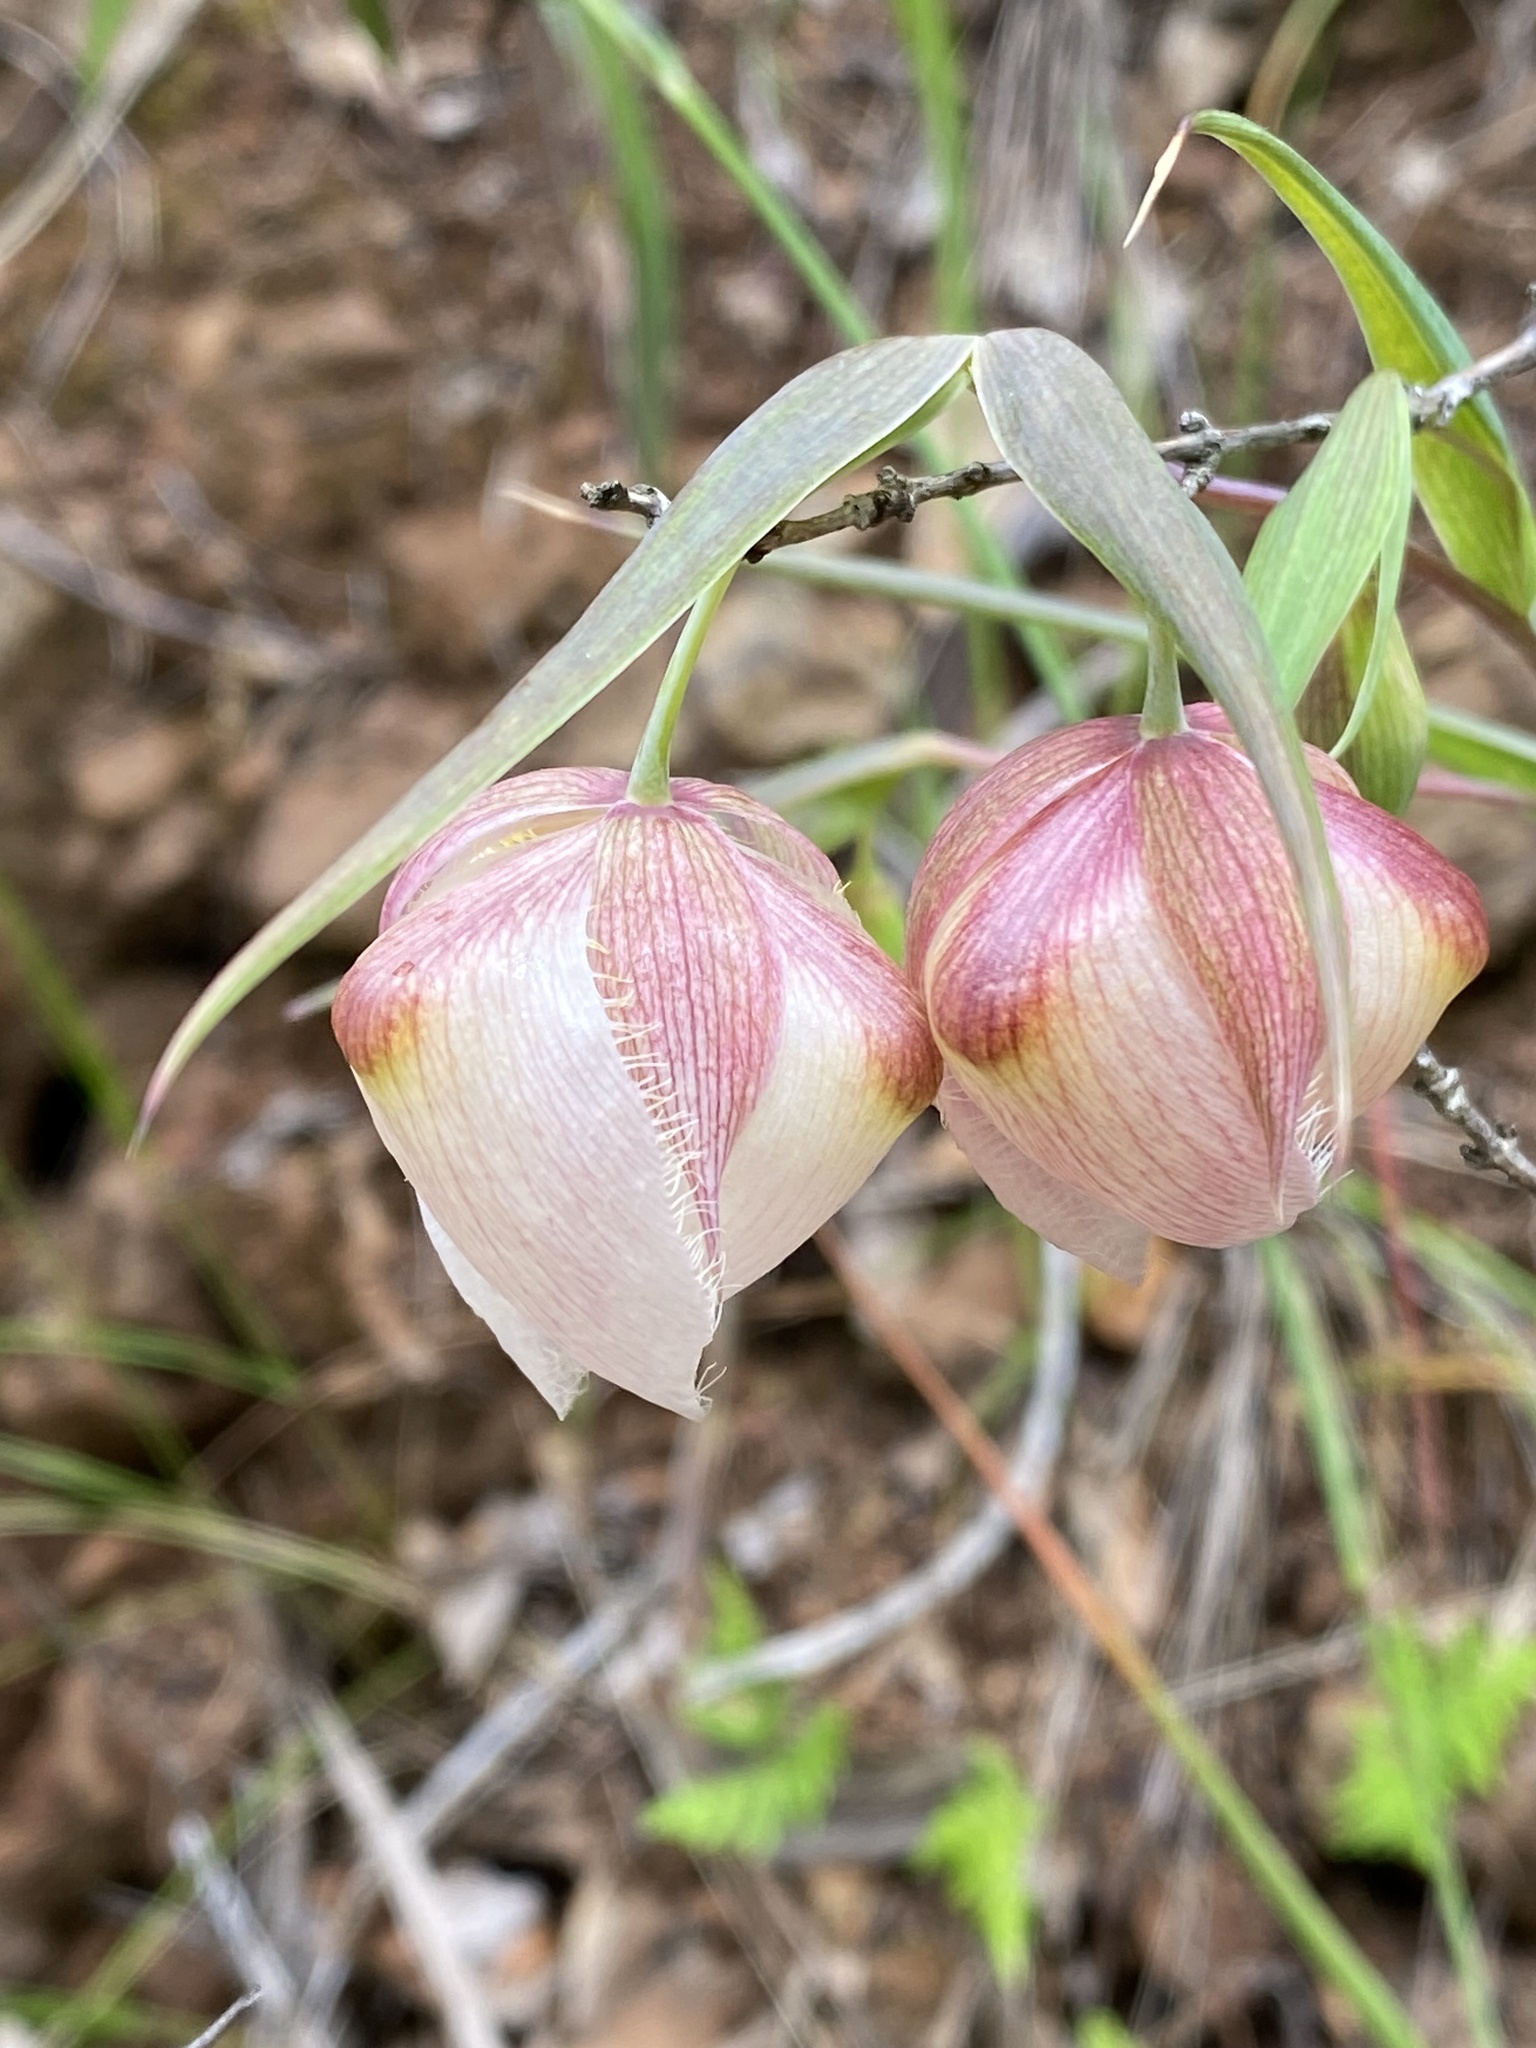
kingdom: Plantae
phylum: Tracheophyta
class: Liliopsida
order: Liliales
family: Liliaceae
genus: Calochortus
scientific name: Calochortus albus
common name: Fairy-lantern
